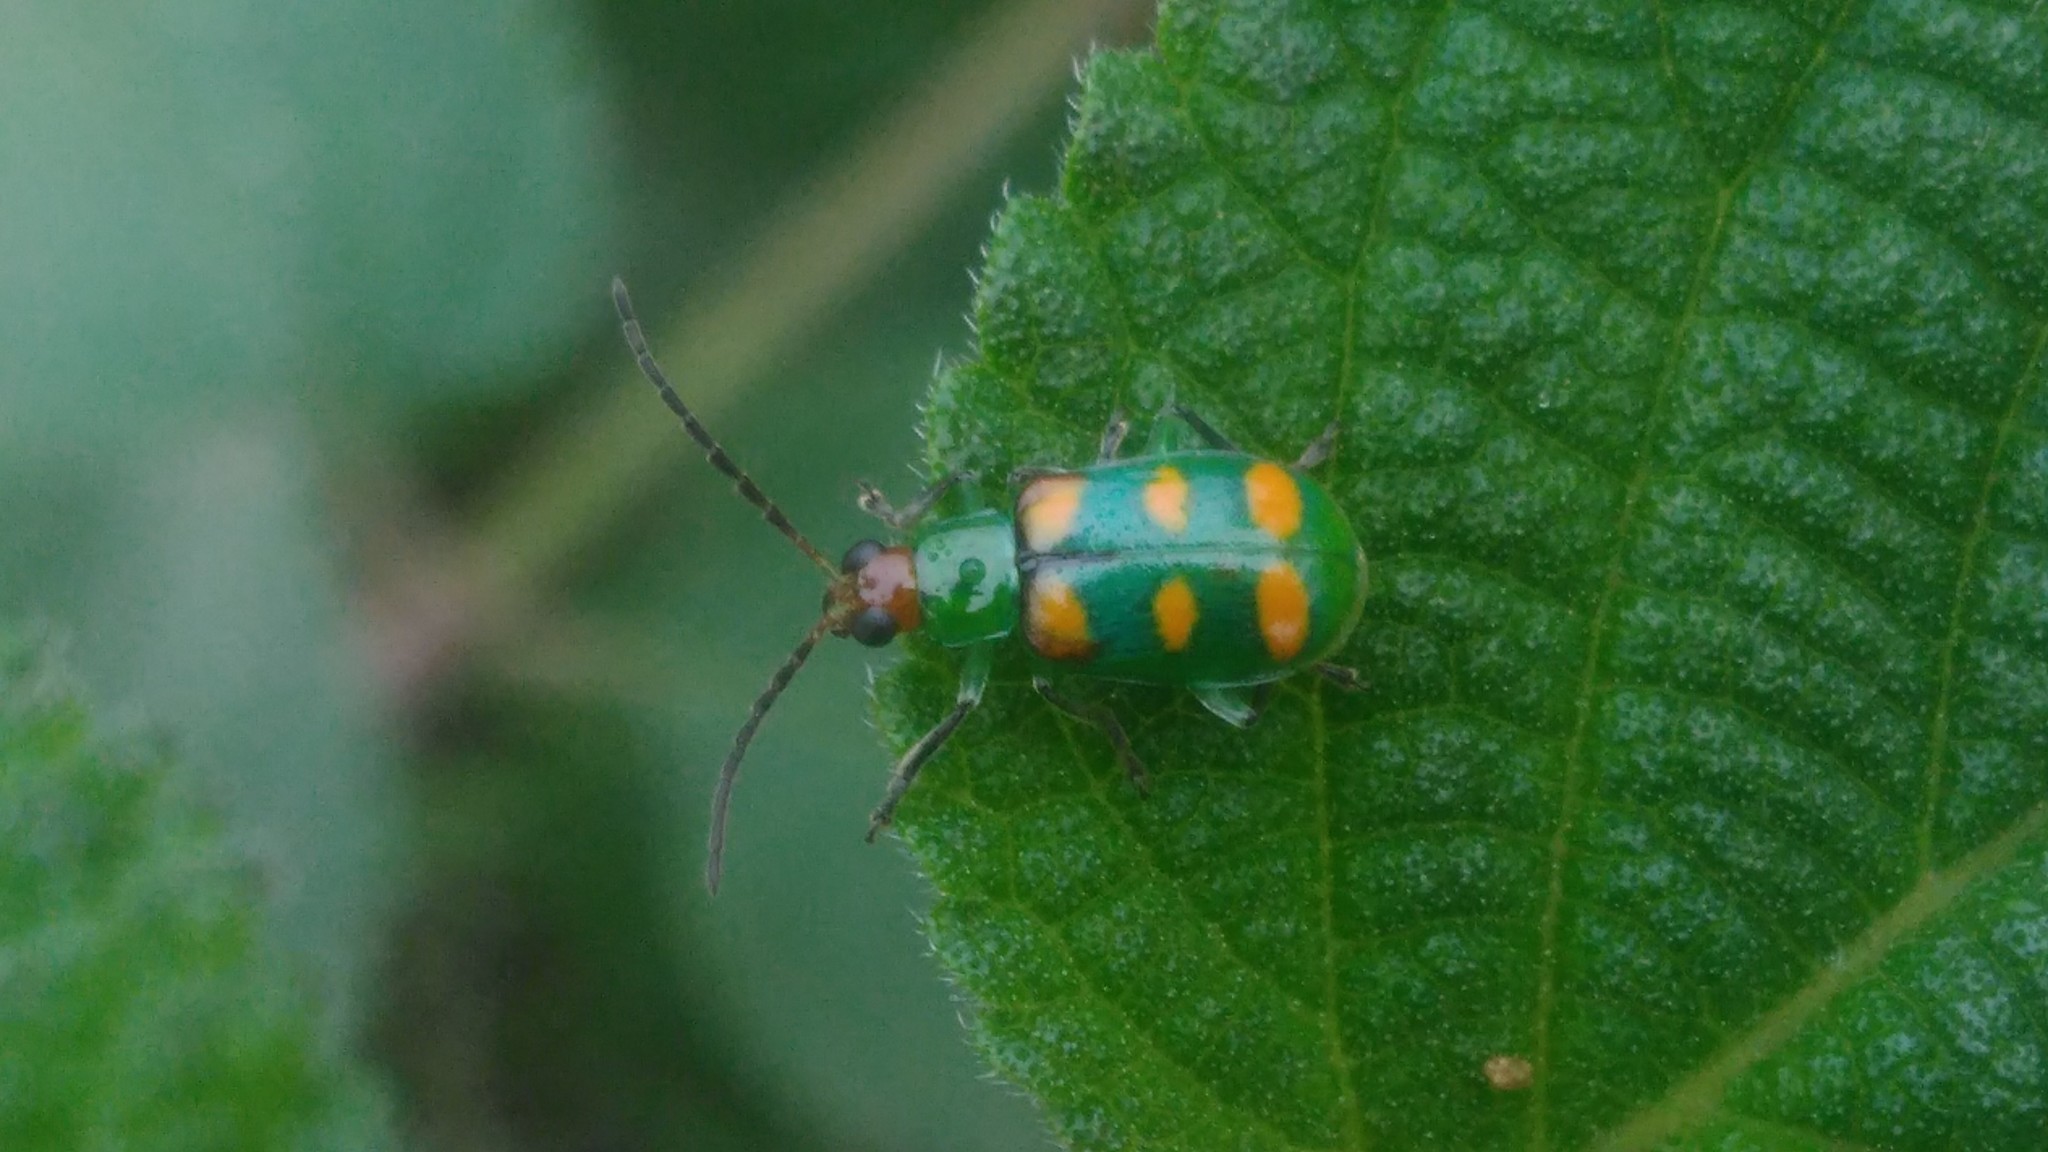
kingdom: Animalia
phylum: Arthropoda
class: Insecta
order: Coleoptera
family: Chrysomelidae
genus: Diabrotica
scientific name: Diabrotica speciosa
